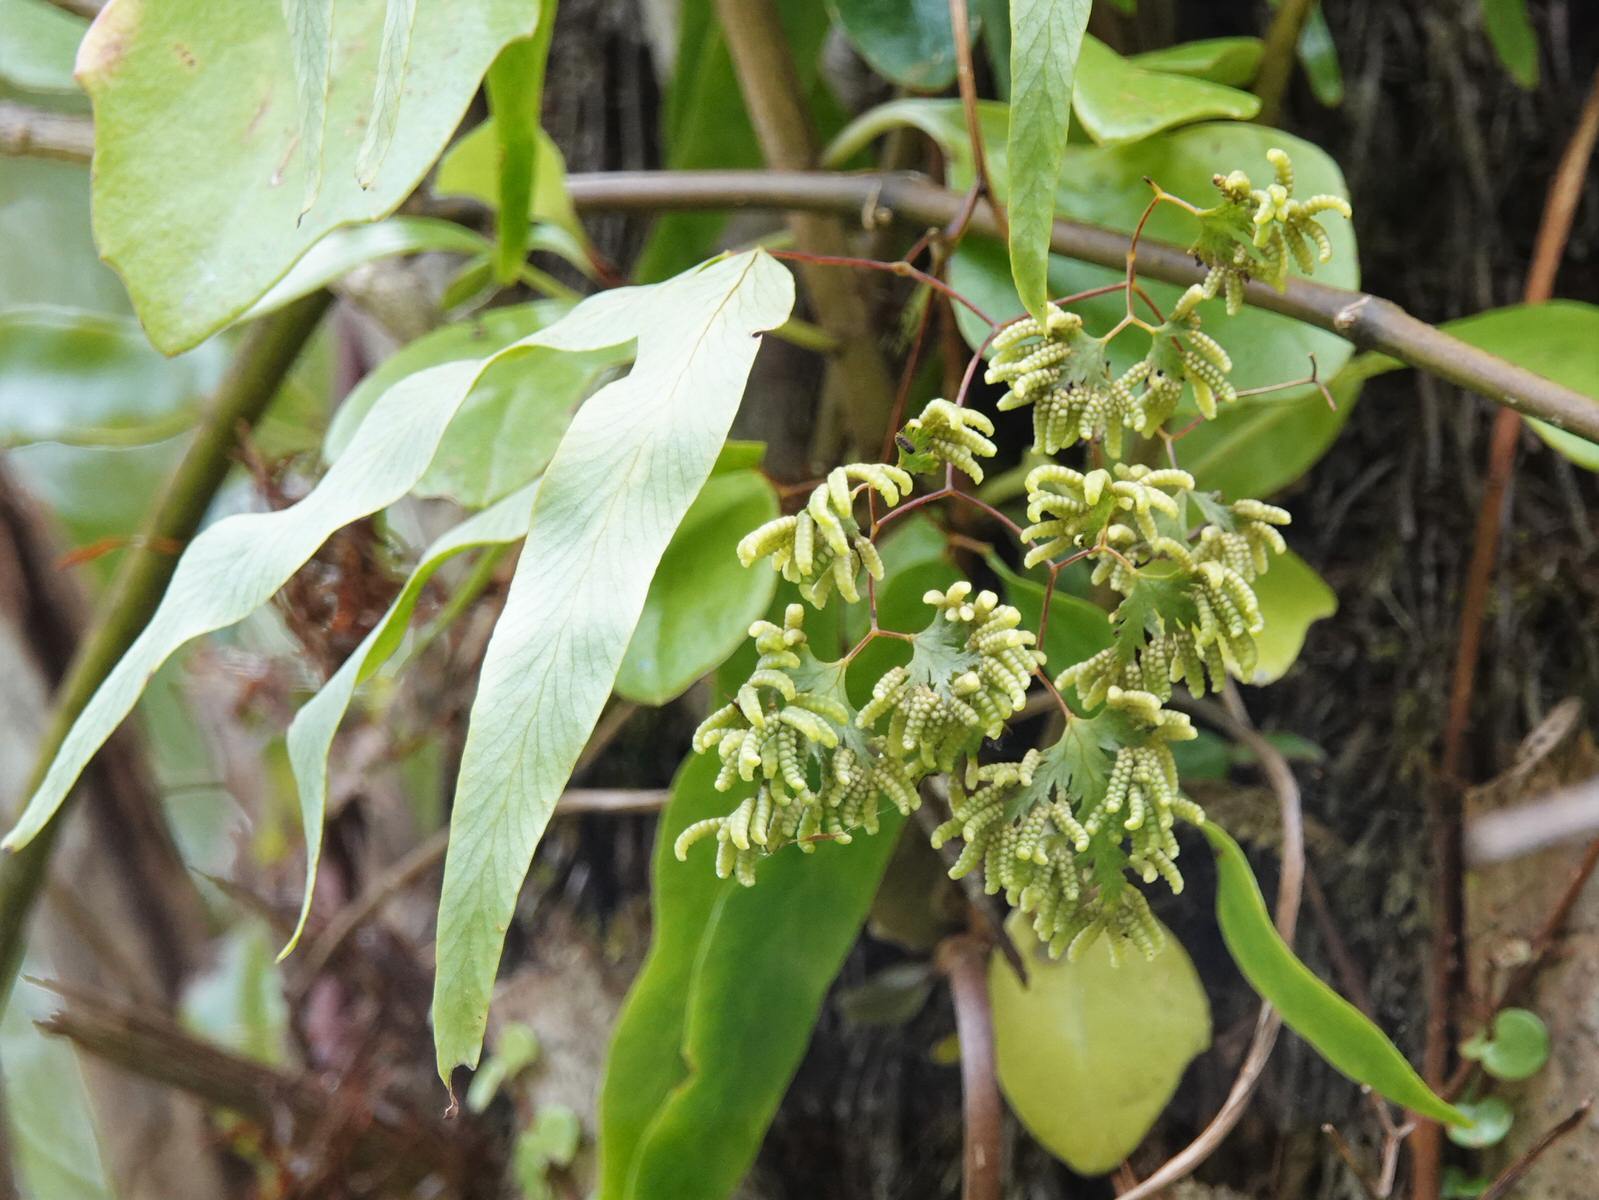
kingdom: Plantae
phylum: Tracheophyta
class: Polypodiopsida
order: Schizaeales
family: Lygodiaceae
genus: Lygodium
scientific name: Lygodium articulatum
